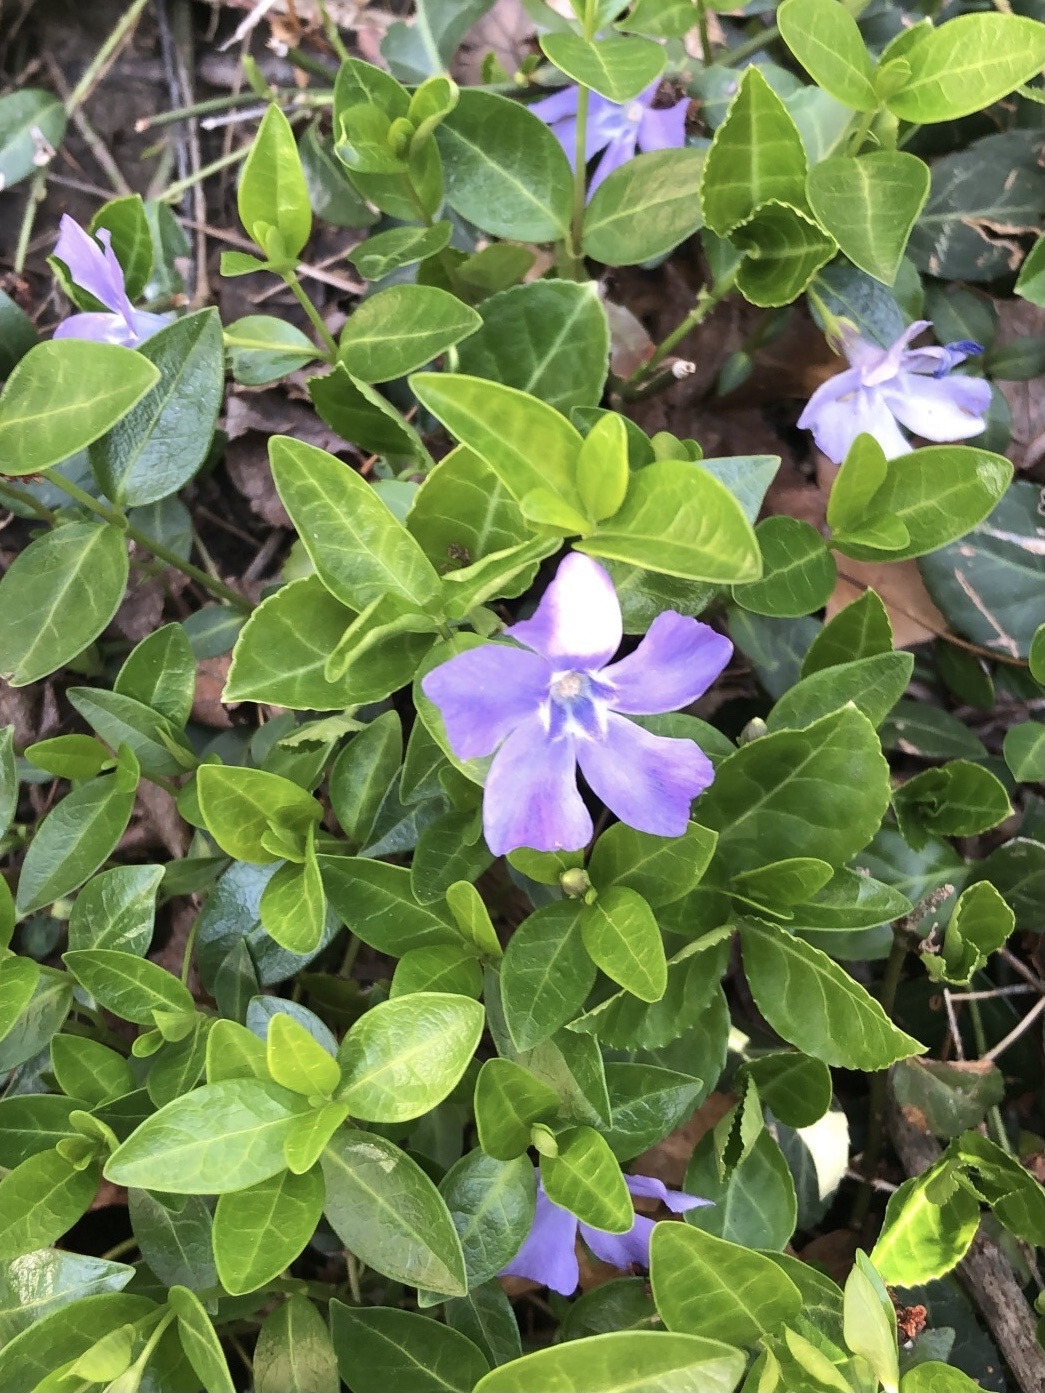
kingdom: Plantae
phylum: Tracheophyta
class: Magnoliopsida
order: Gentianales
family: Apocynaceae
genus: Vinca
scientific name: Vinca minor
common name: Lesser periwinkle
